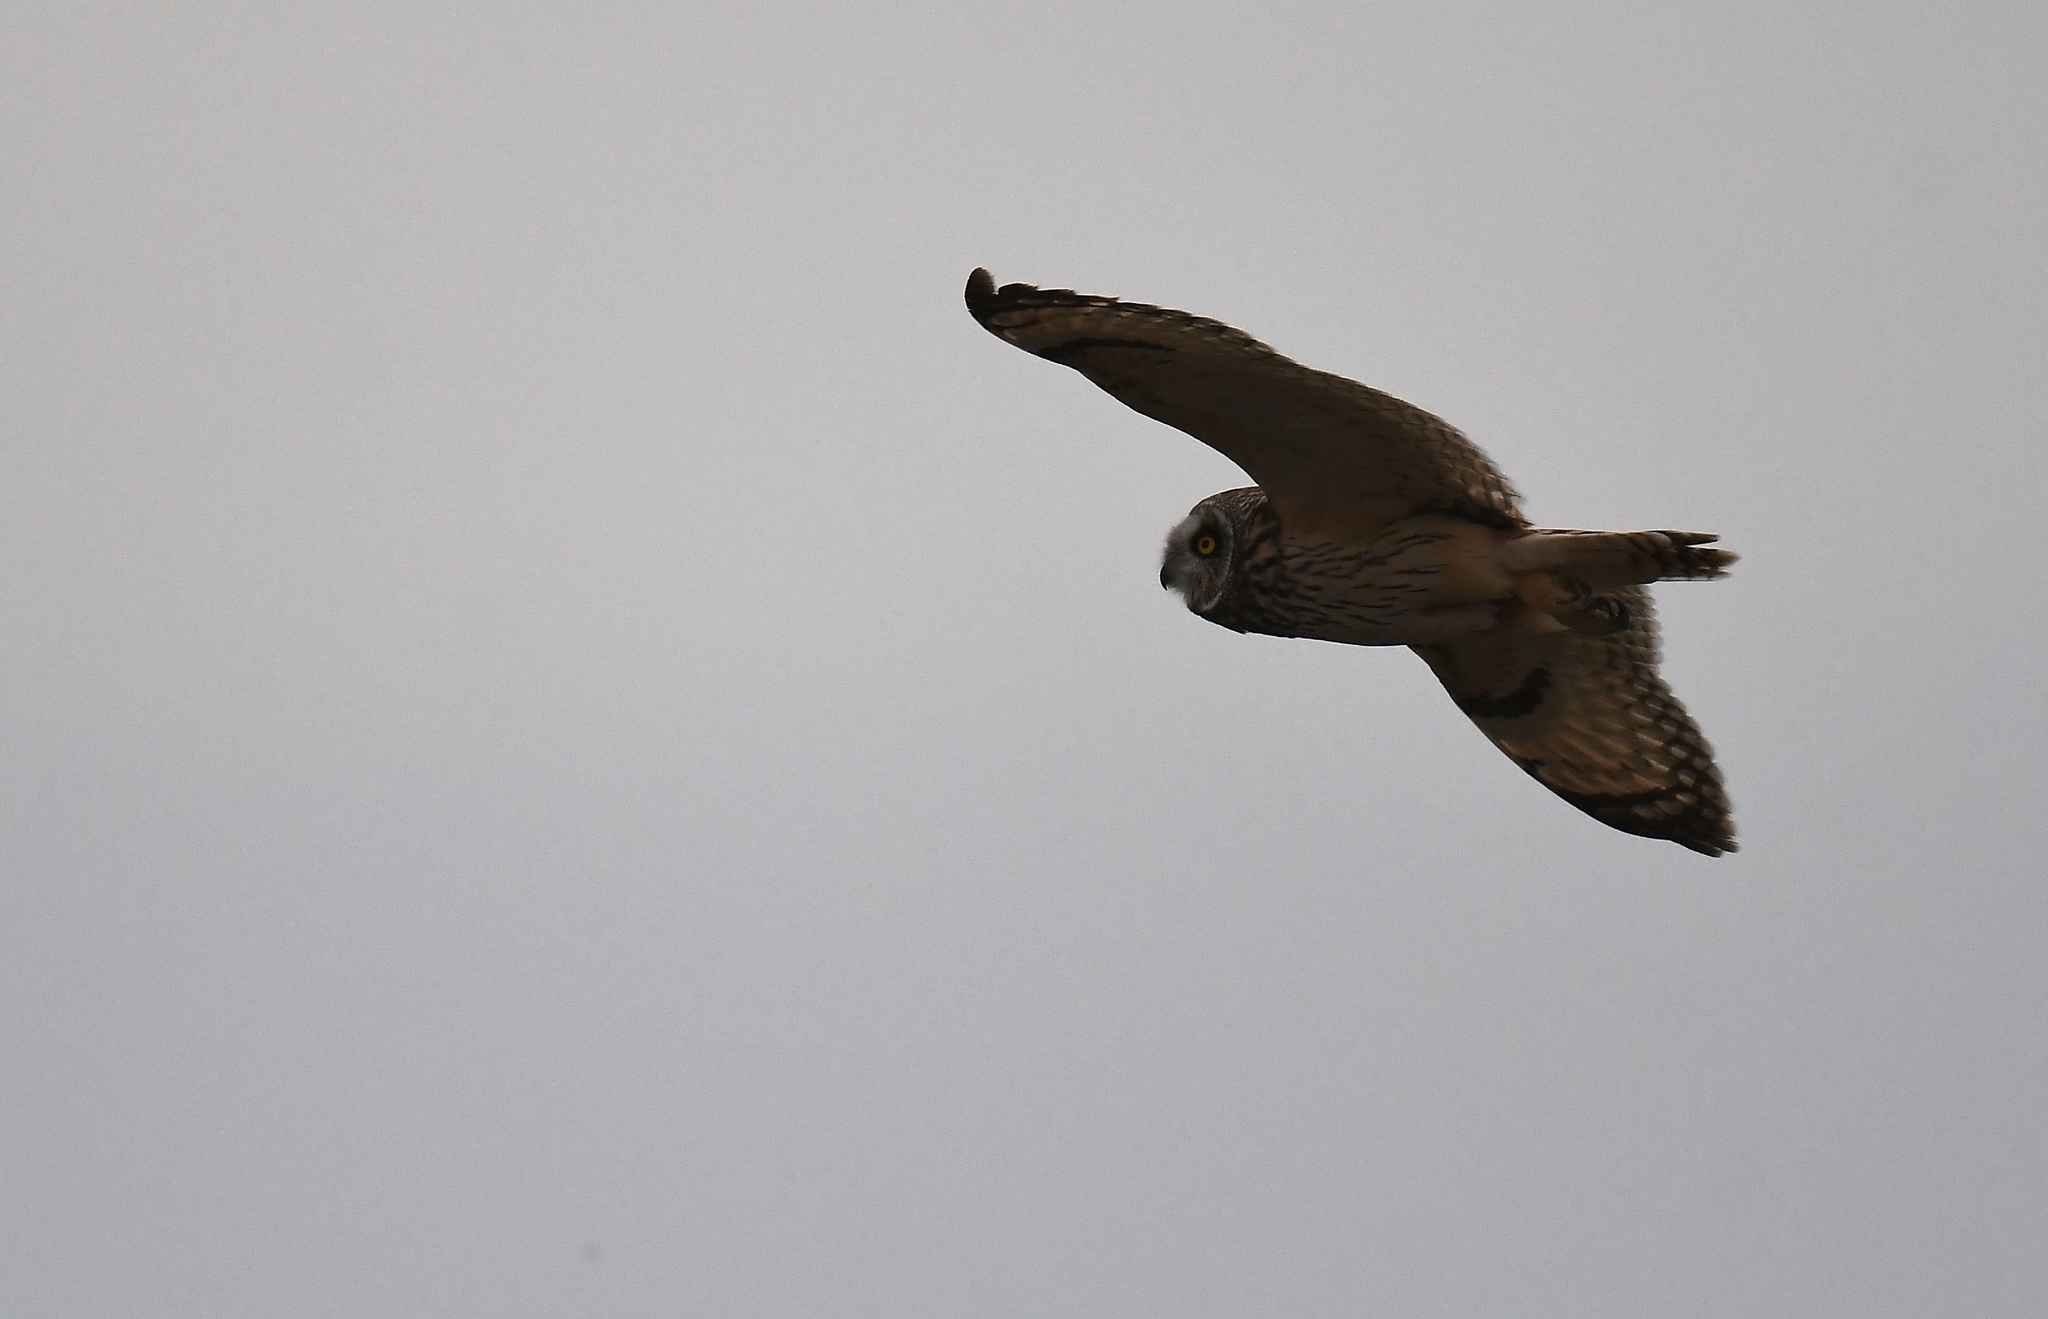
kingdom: Animalia
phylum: Chordata
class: Aves
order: Strigiformes
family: Strigidae
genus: Asio
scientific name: Asio flammeus
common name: Short-eared owl
